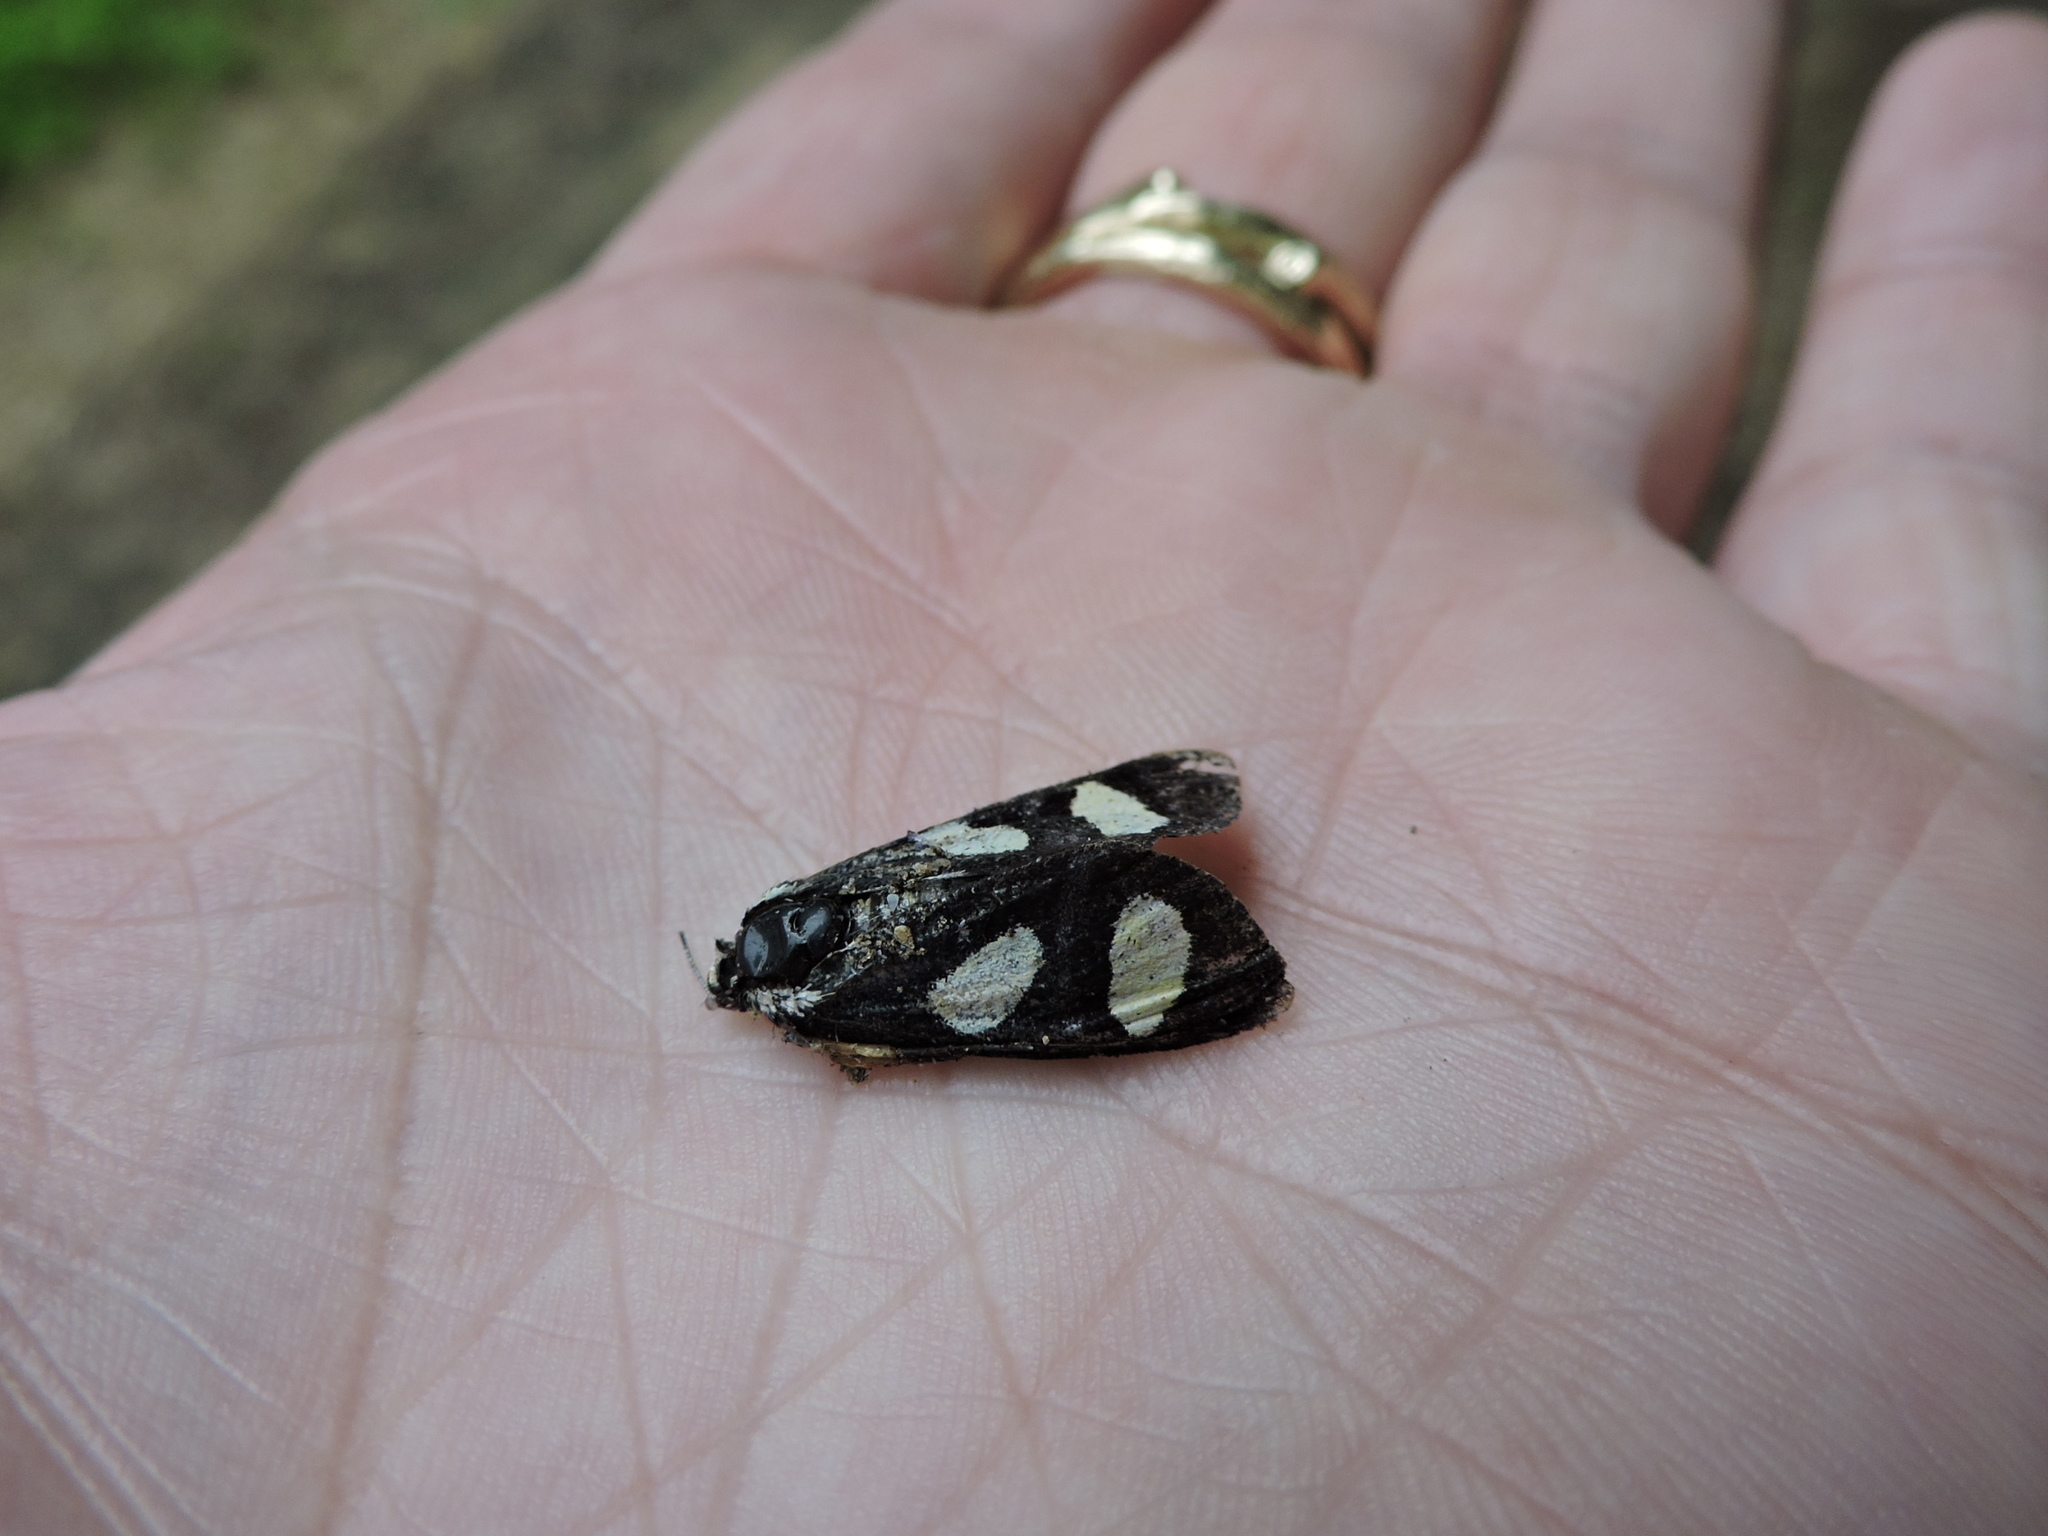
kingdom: Animalia
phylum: Arthropoda
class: Insecta
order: Lepidoptera
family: Noctuidae
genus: Alypia
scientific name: Alypia octomaculata
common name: Eight-spotted forester
